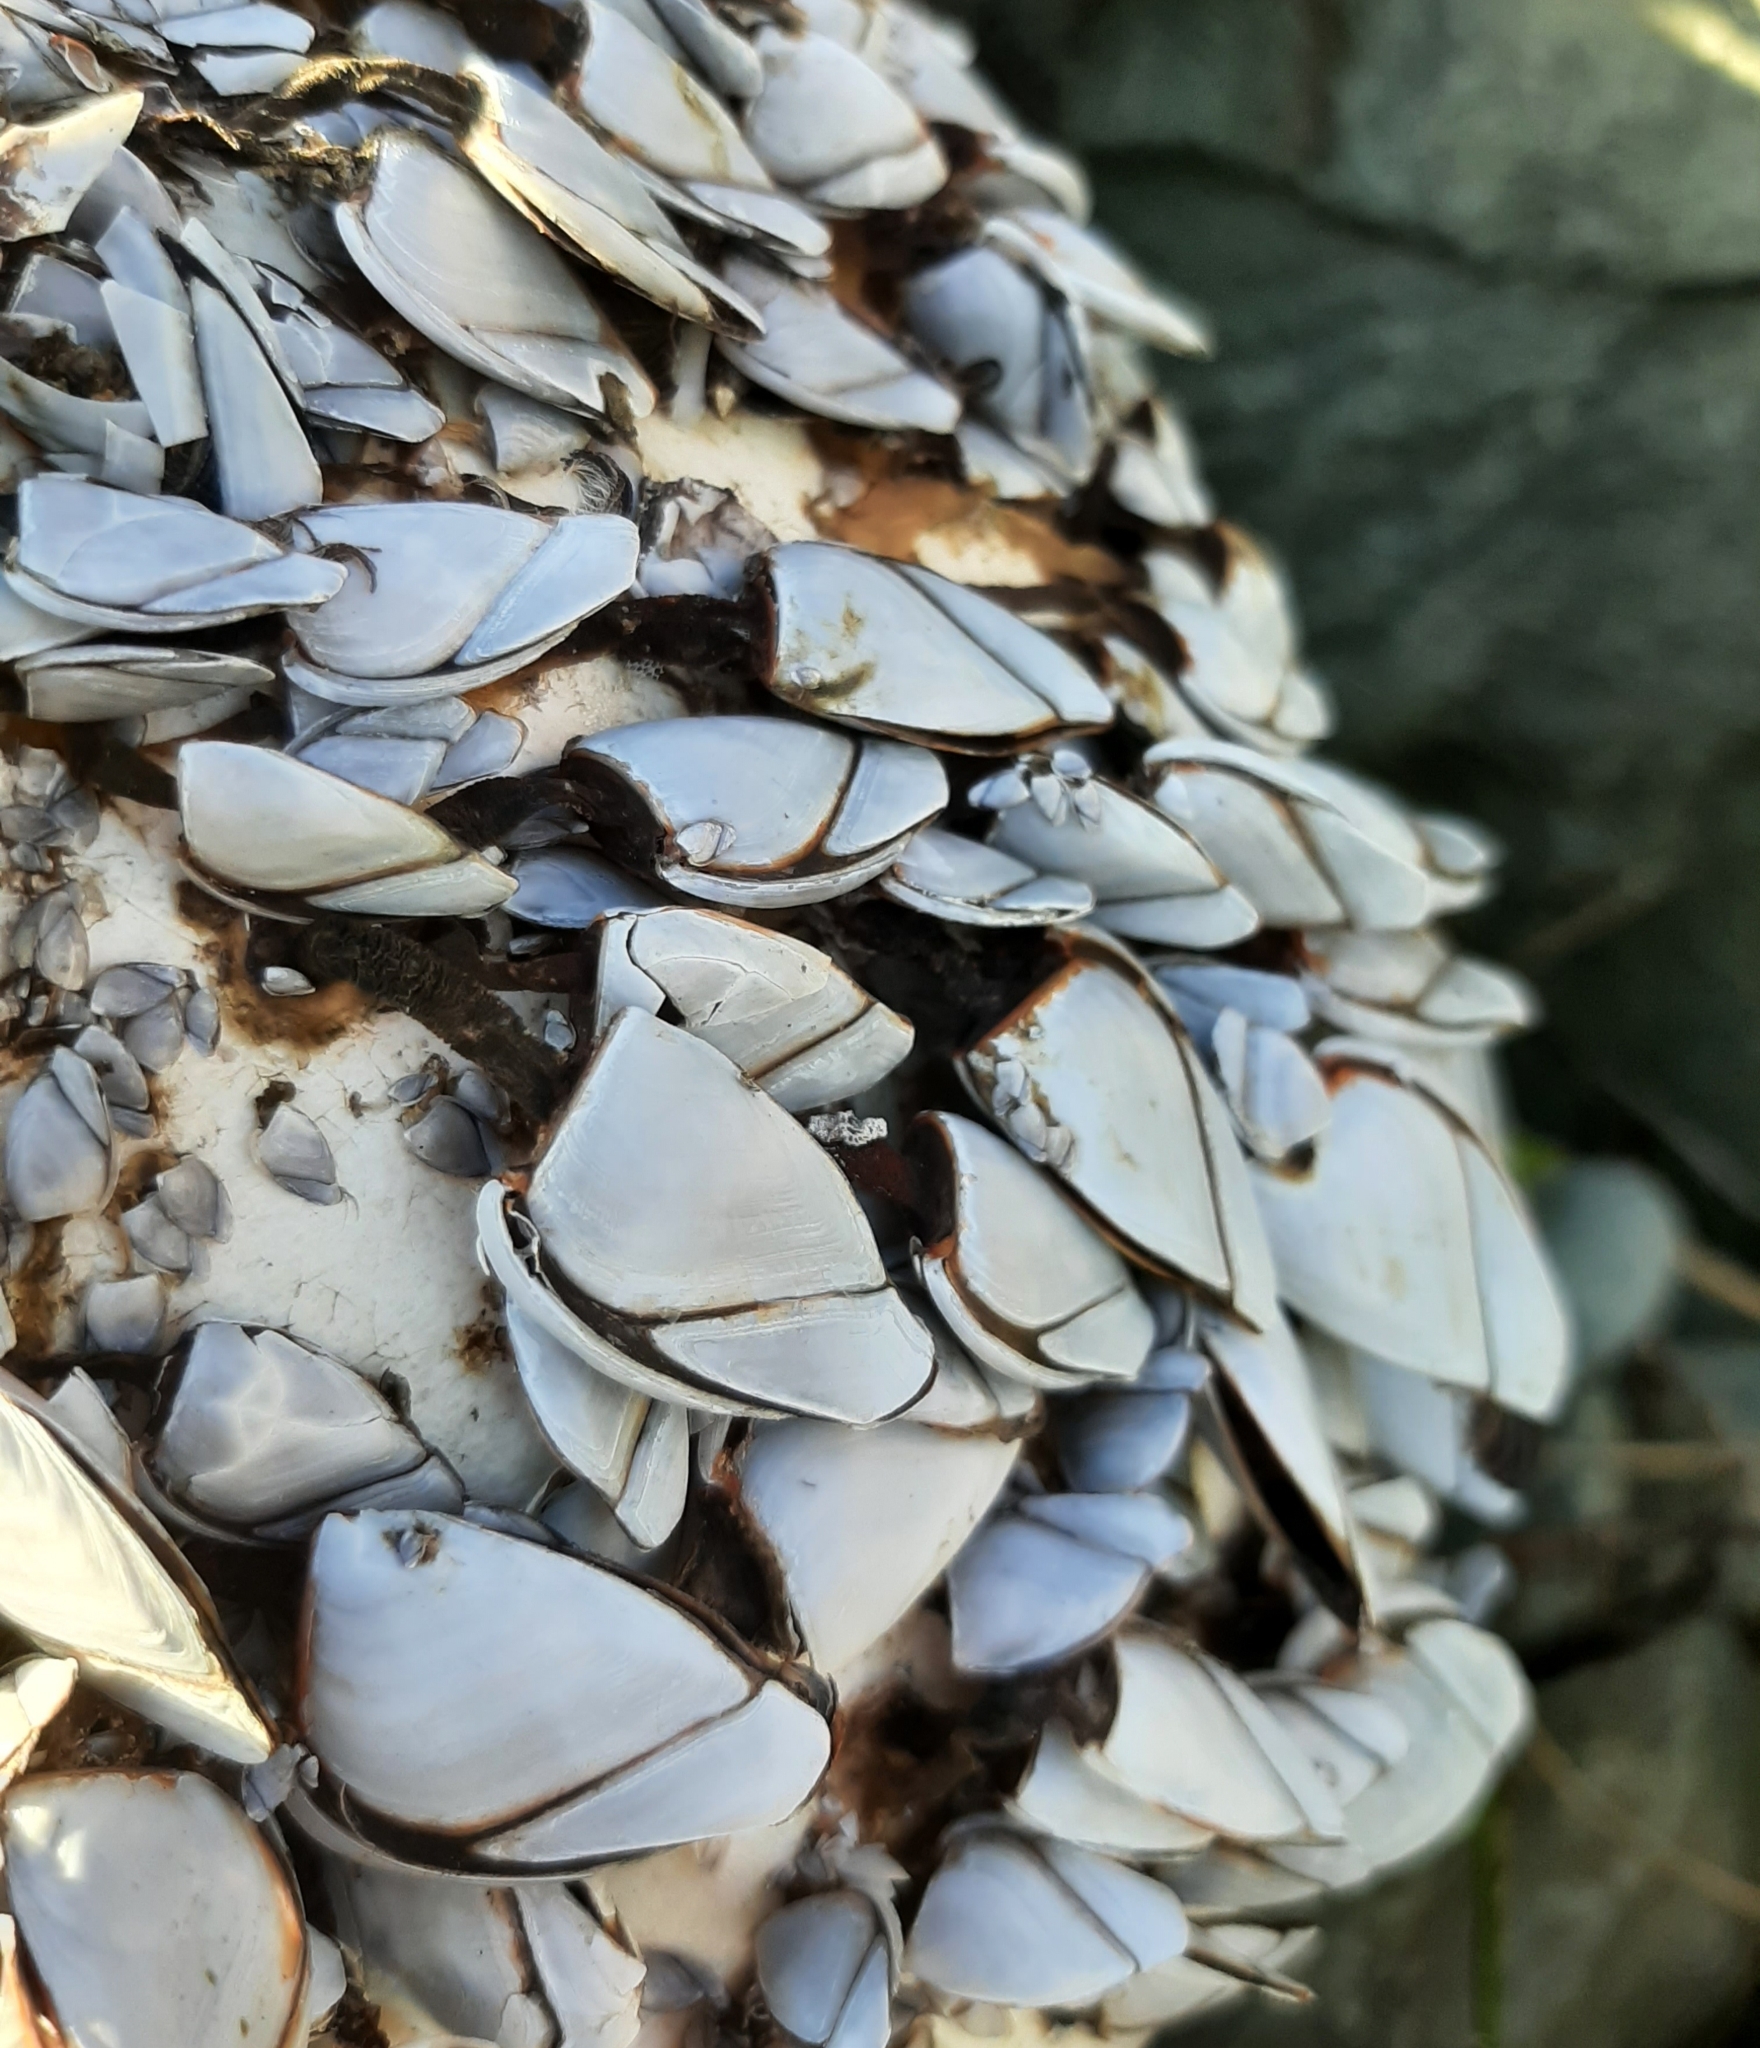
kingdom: Animalia
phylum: Arthropoda
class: Maxillopoda
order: Pedunculata
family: Lepadidae
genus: Lepas
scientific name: Lepas anatifera
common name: Common goose barnacle
